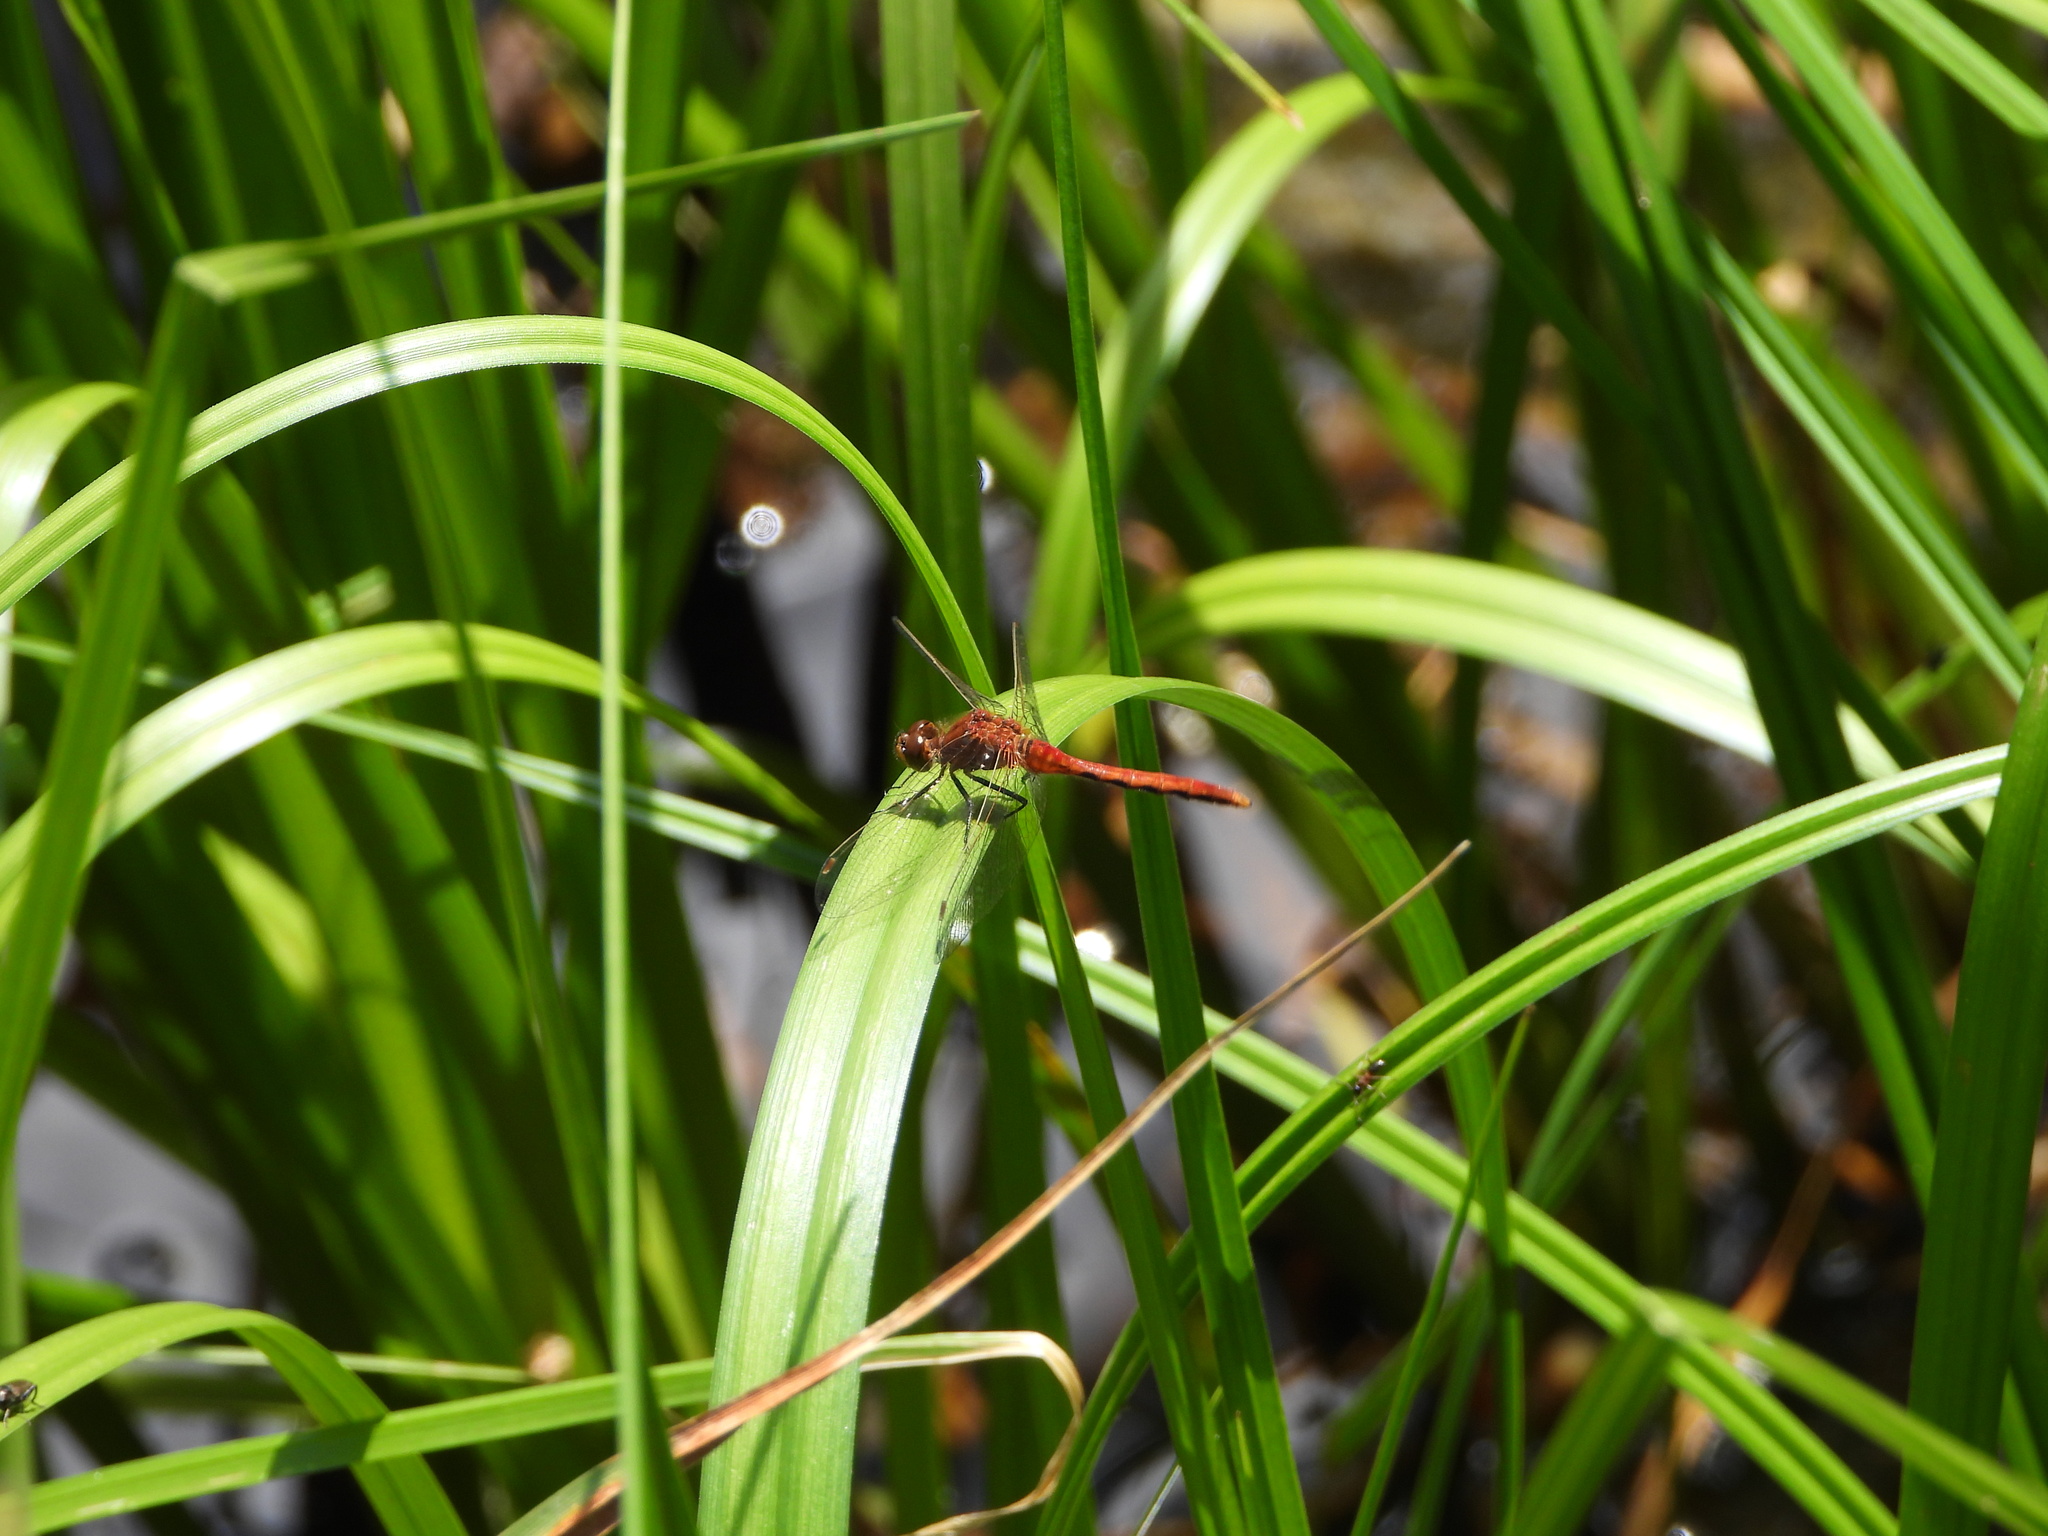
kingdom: Animalia
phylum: Arthropoda
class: Insecta
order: Odonata
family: Libellulidae
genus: Sympetrum
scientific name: Sympetrum internum
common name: Cherry-faced meadowhawk
